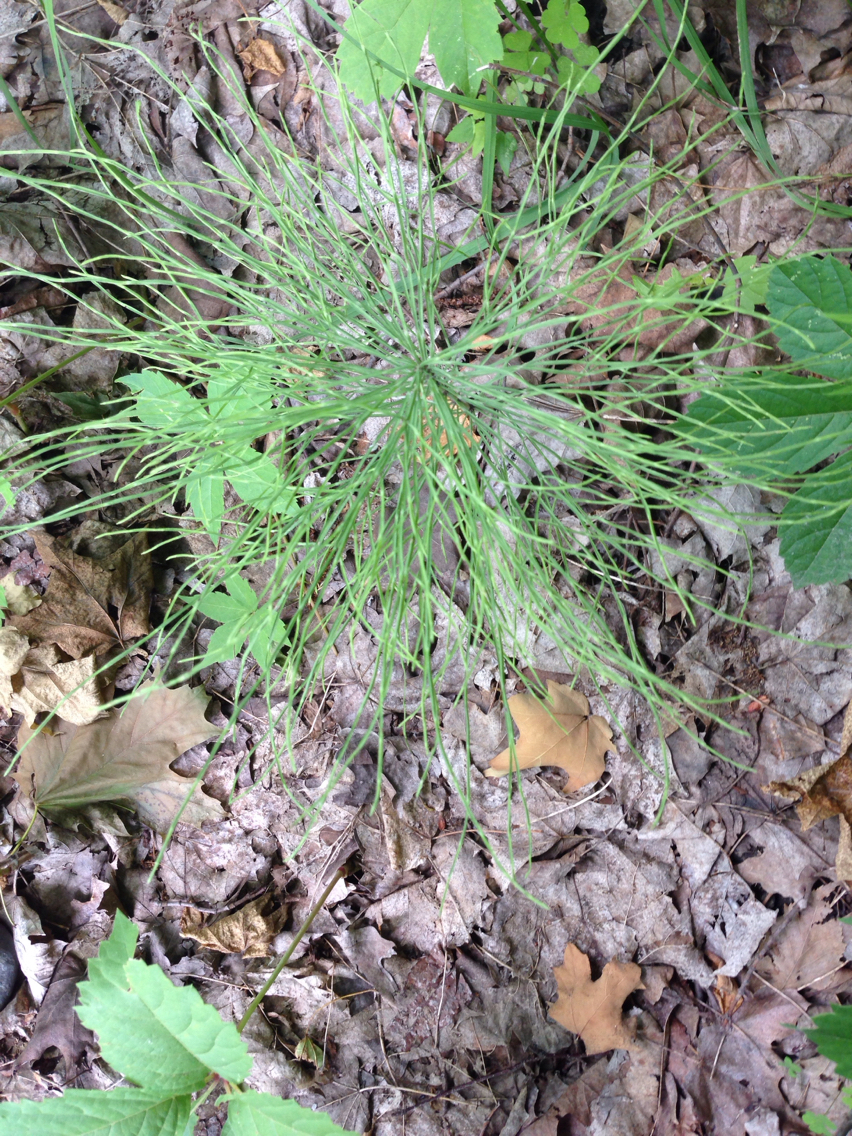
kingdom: Plantae
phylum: Tracheophyta
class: Polypodiopsida
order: Equisetales
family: Equisetaceae
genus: Equisetum
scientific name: Equisetum sylvaticum
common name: Wood horsetail
